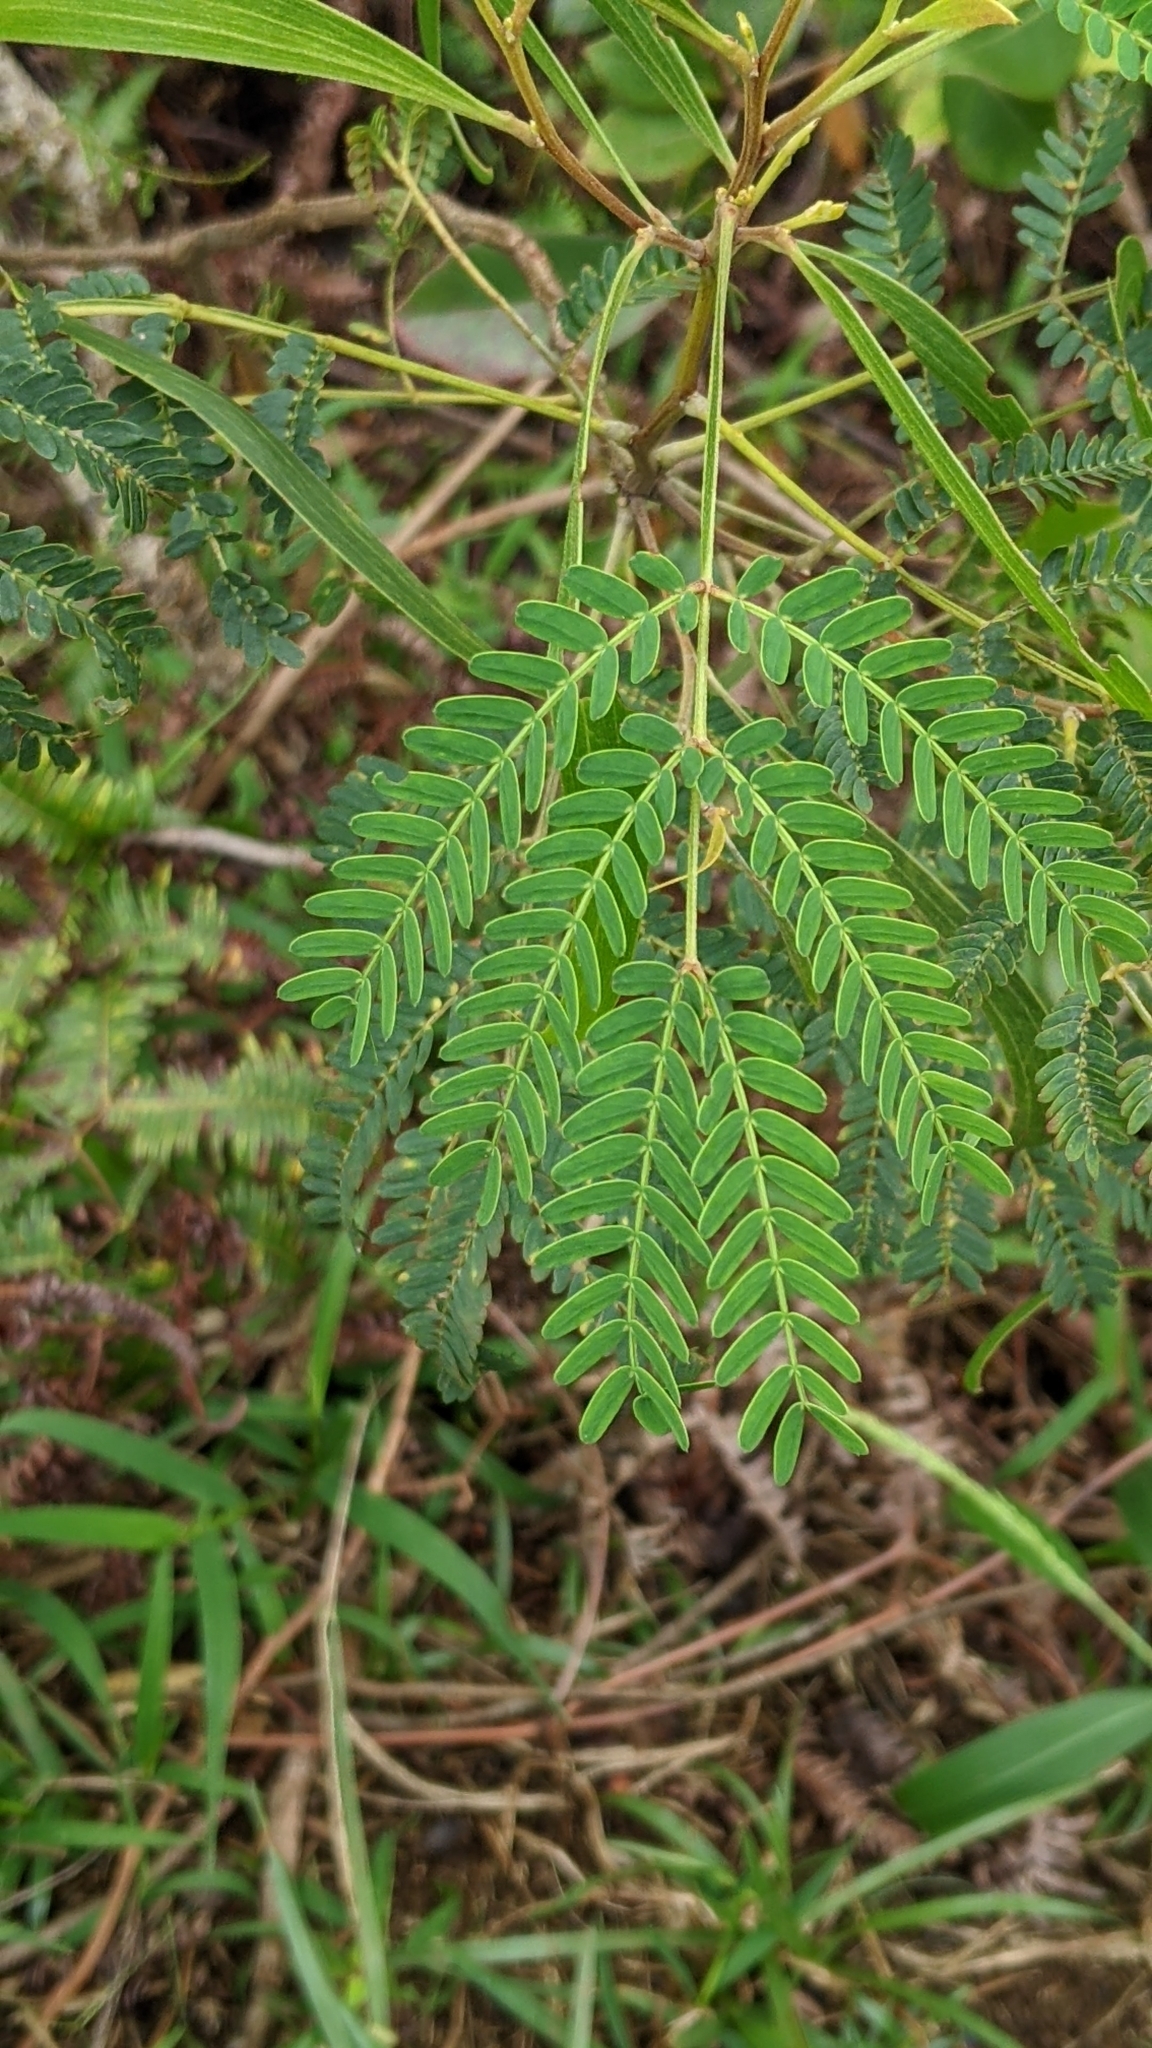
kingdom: Plantae
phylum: Tracheophyta
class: Magnoliopsida
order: Fabales
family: Fabaceae
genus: Acacia
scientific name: Acacia koa
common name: Gray koa
